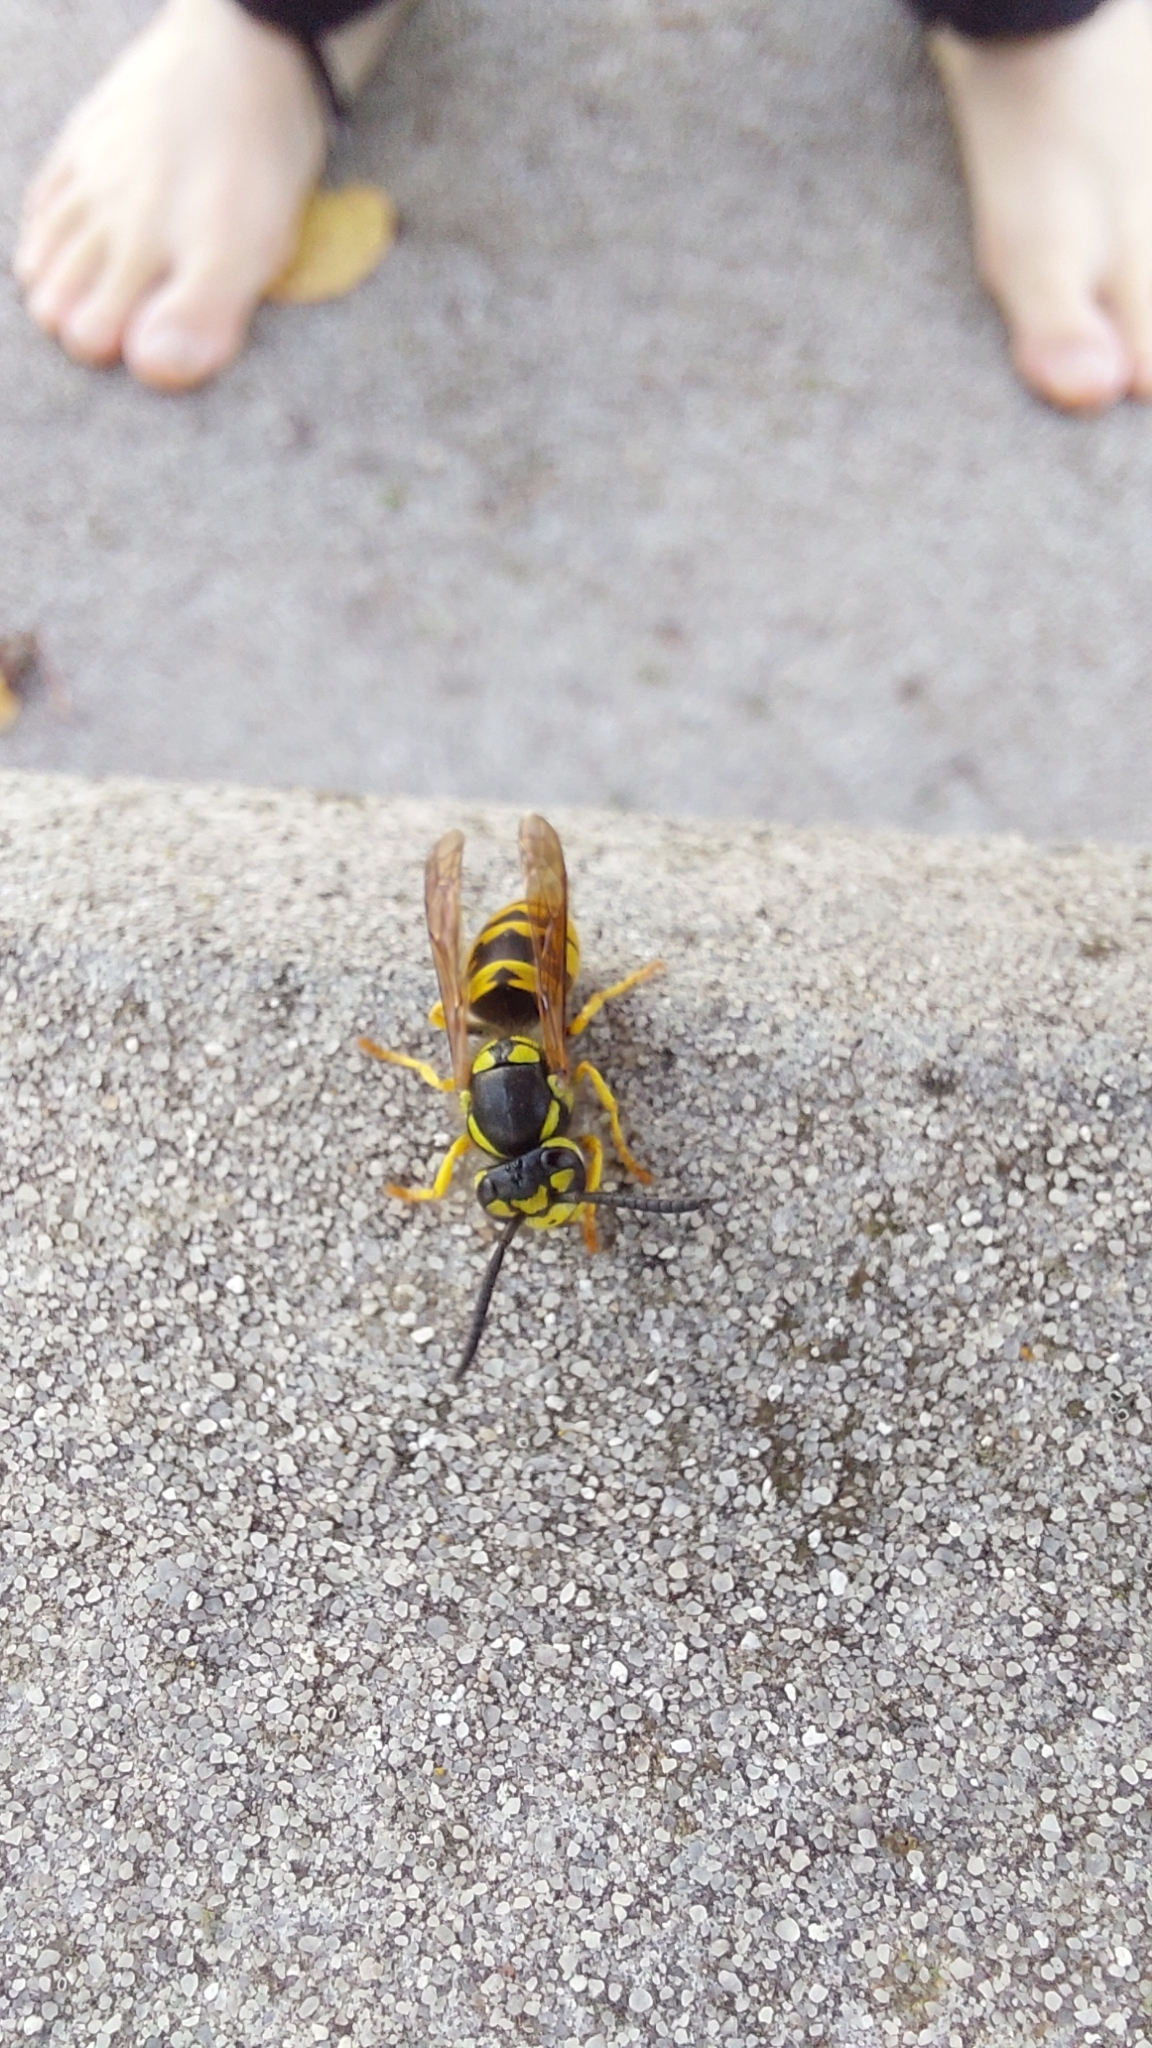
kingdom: Animalia
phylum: Arthropoda
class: Insecta
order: Hymenoptera
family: Vespidae
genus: Vespula
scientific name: Vespula germanica
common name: German wasp
